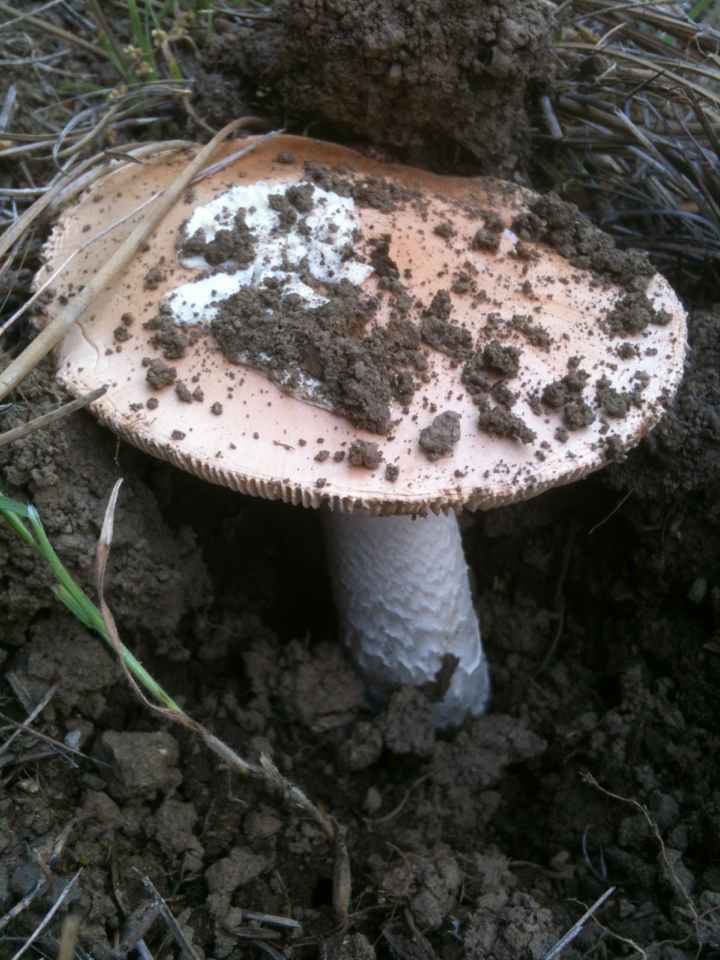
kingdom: Fungi
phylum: Basidiomycota
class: Agaricomycetes
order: Agaricales
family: Amanitaceae
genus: Amanita
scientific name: Amanita velosa
